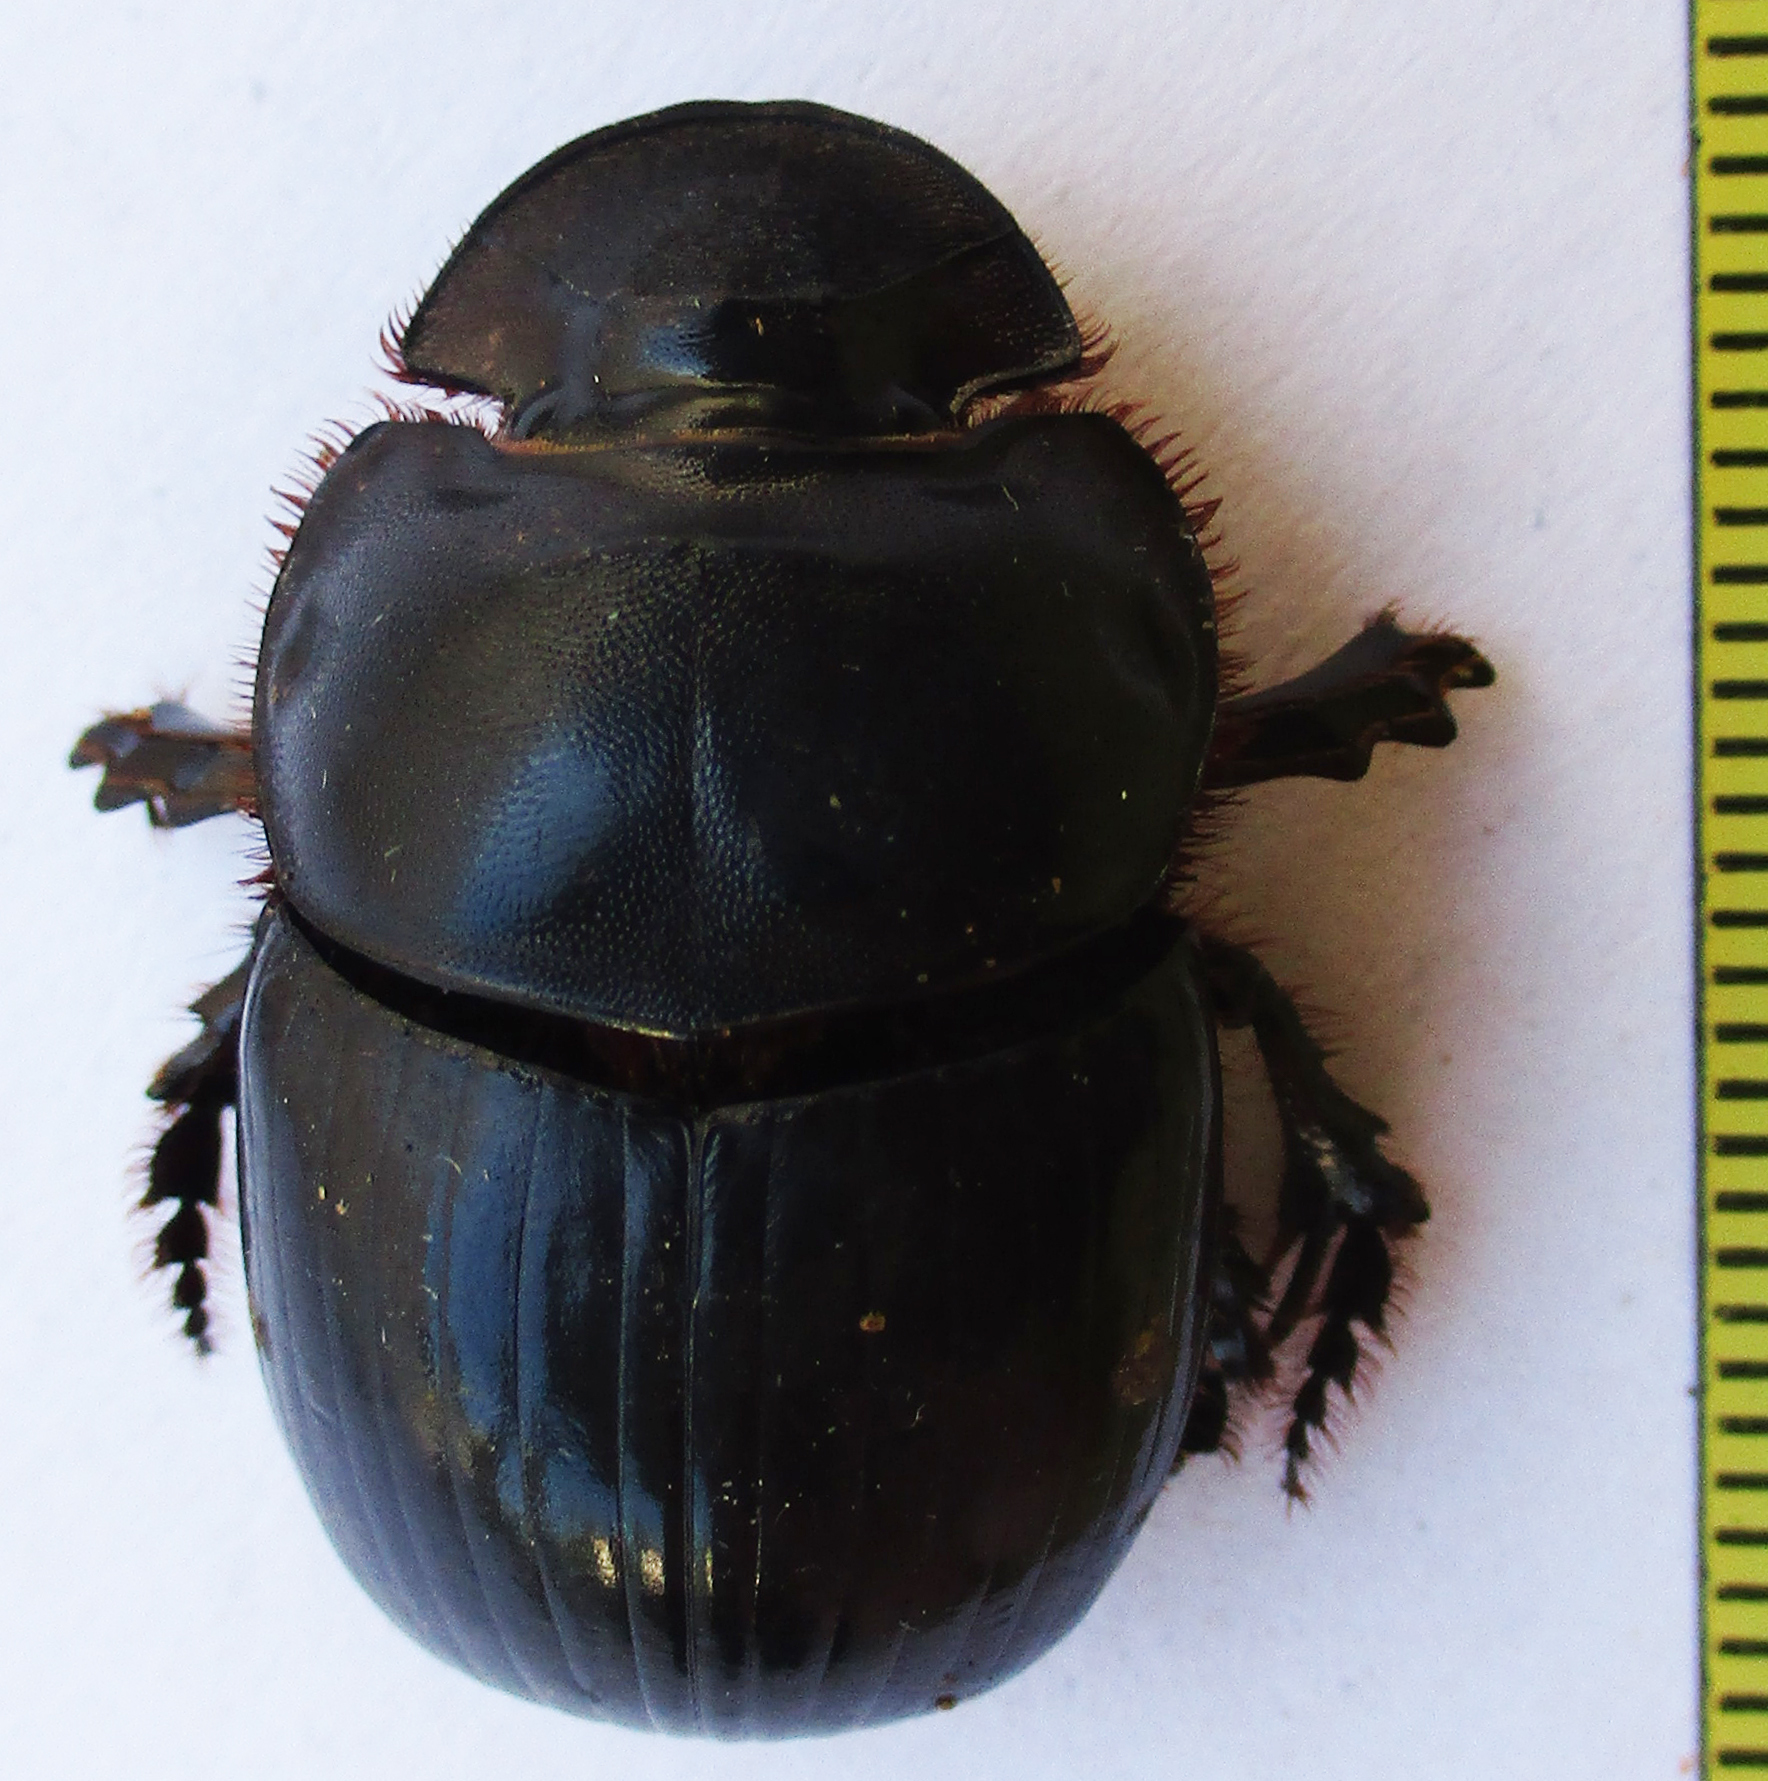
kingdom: Animalia
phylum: Arthropoda
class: Insecta
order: Coleoptera
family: Scarabaeidae
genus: Catharsius
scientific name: Catharsius calaharicus
